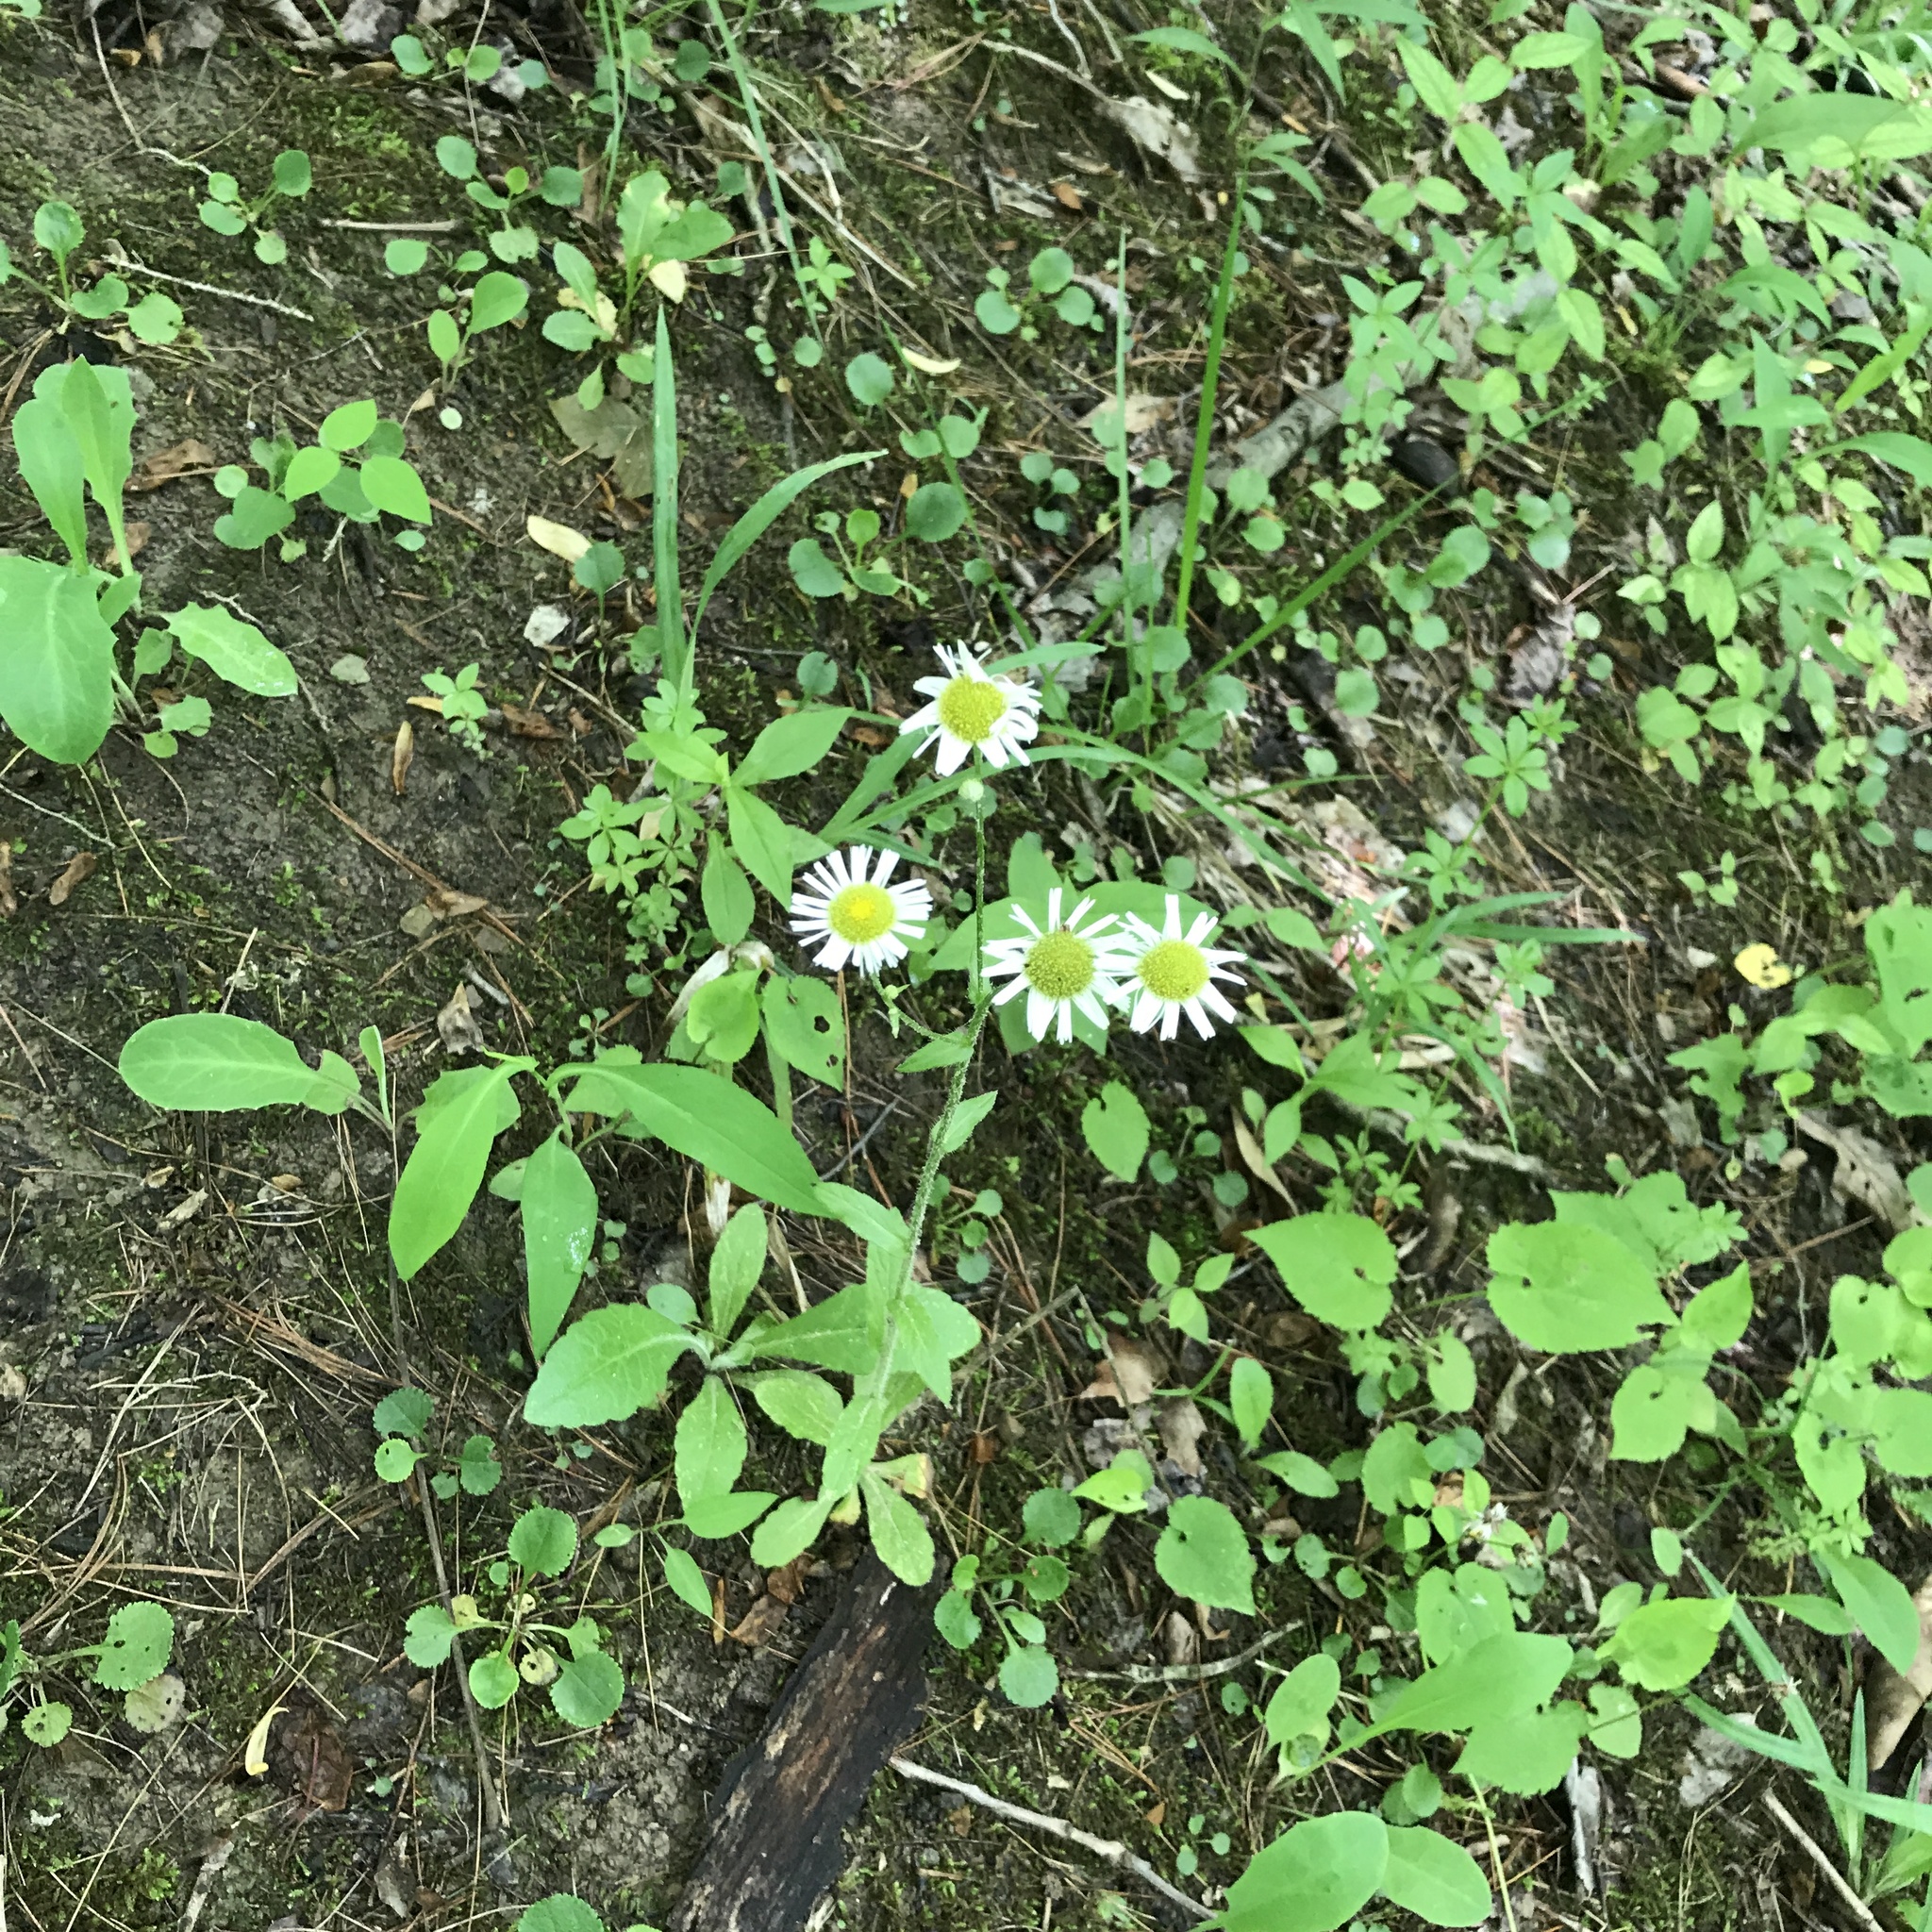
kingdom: Plantae
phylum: Tracheophyta
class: Magnoliopsida
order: Asterales
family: Asteraceae
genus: Erigeron
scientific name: Erigeron pulchellus
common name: Hairy fleabane
